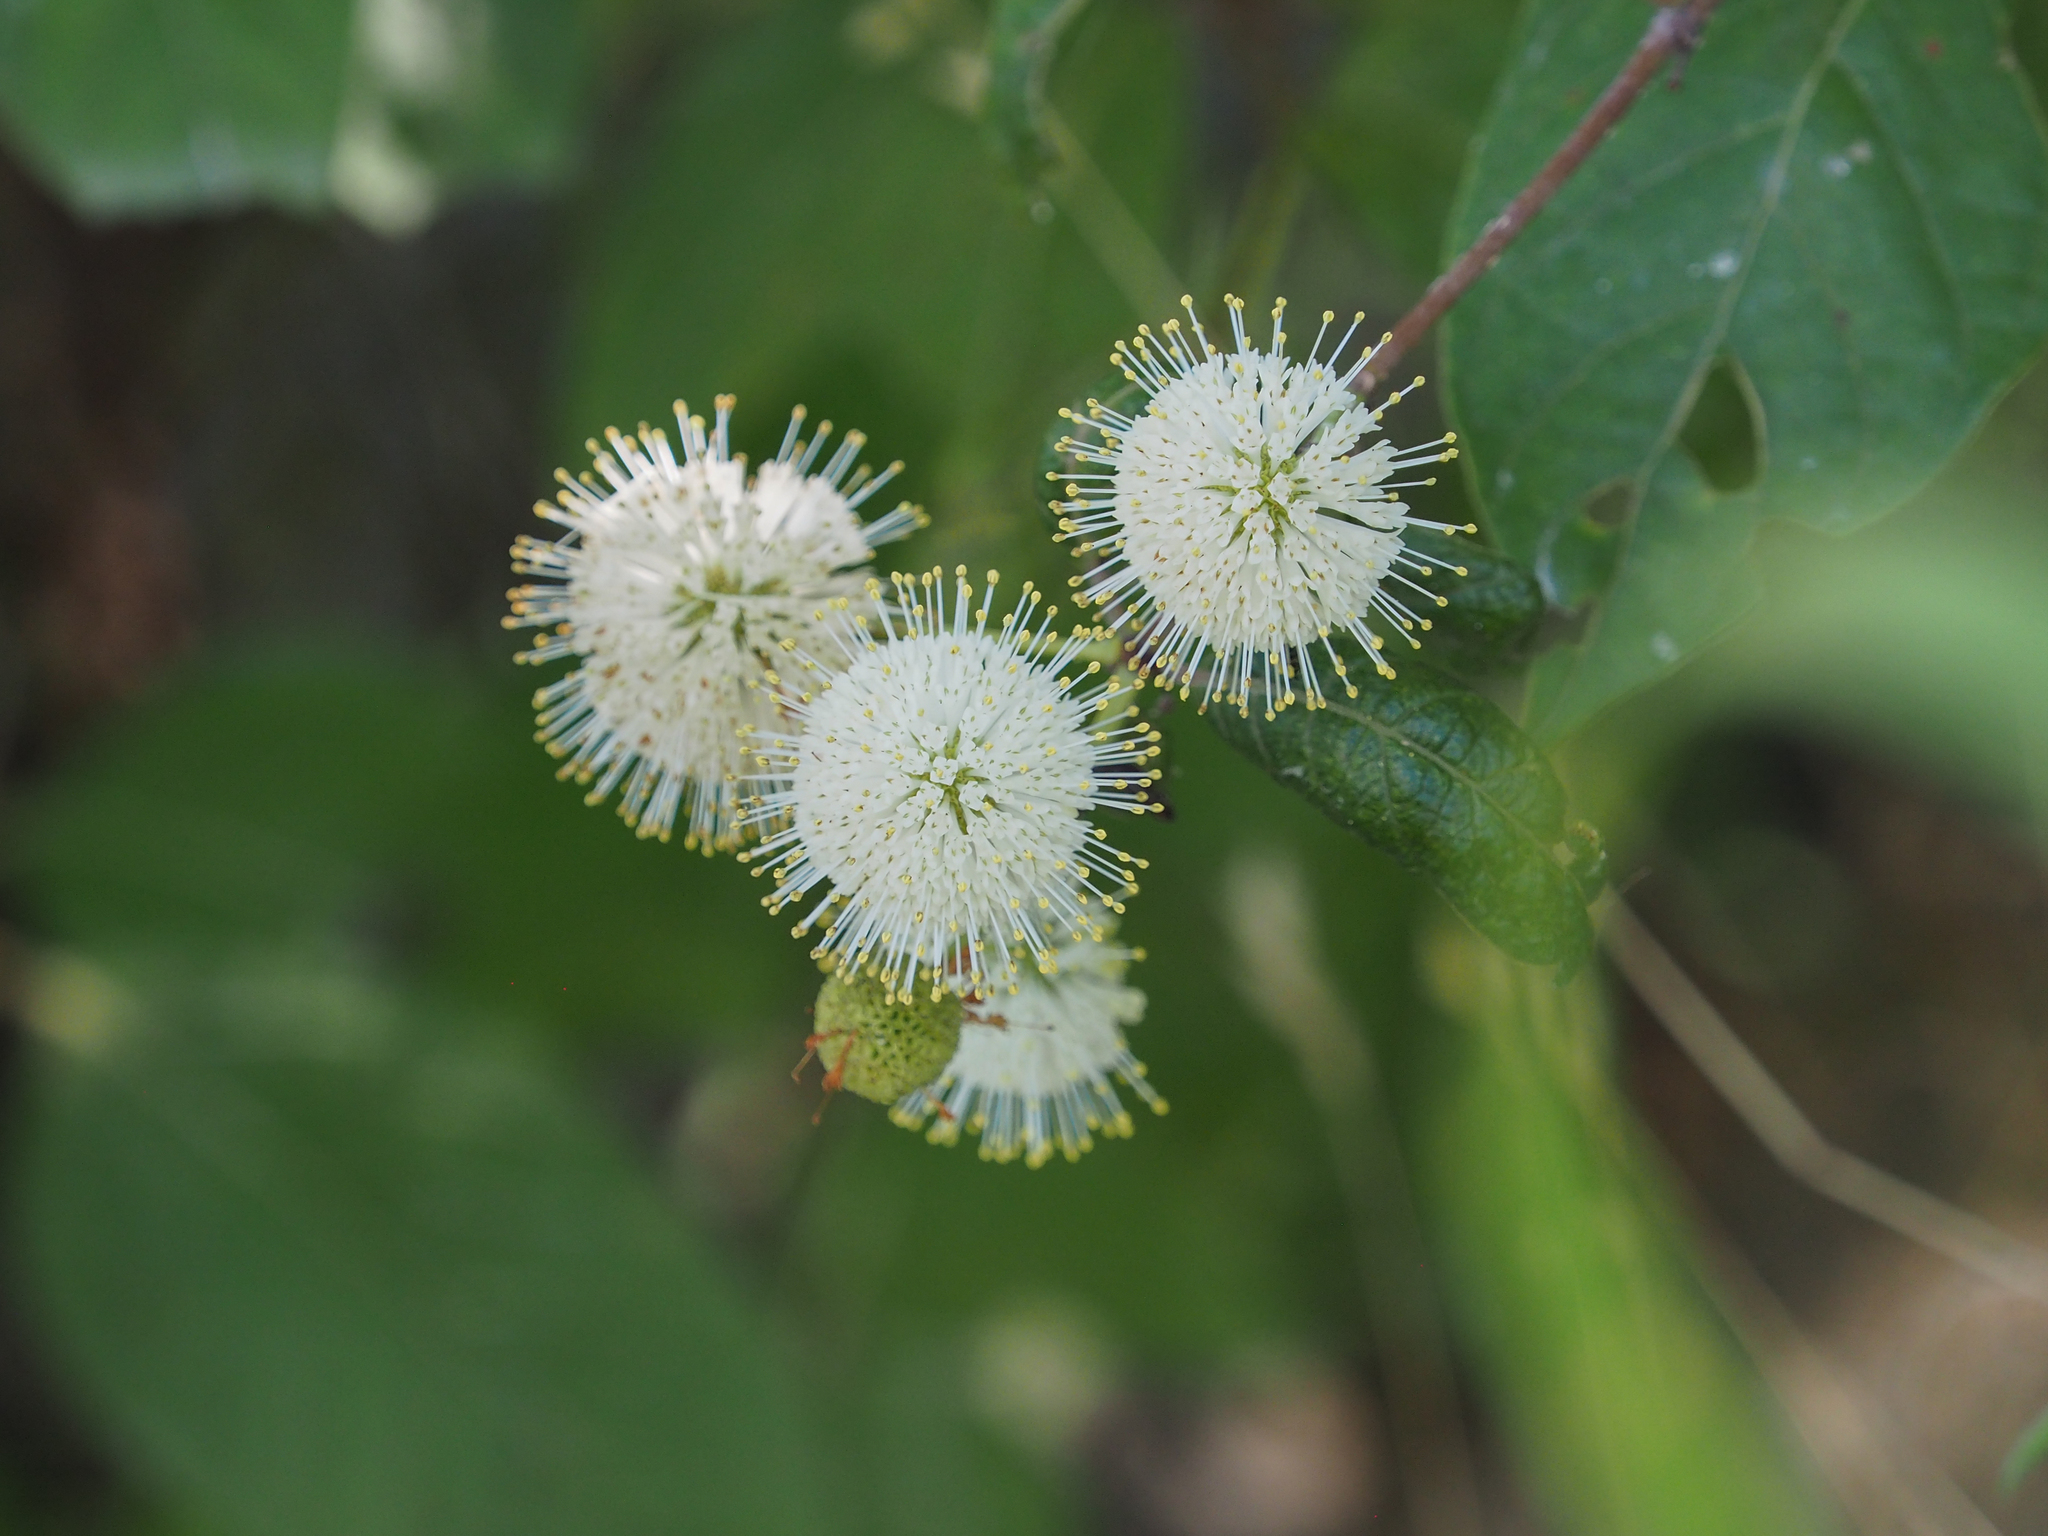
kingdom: Plantae
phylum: Tracheophyta
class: Magnoliopsida
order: Gentianales
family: Rubiaceae
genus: Cephalanthus
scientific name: Cephalanthus occidentalis
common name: Button-willow
